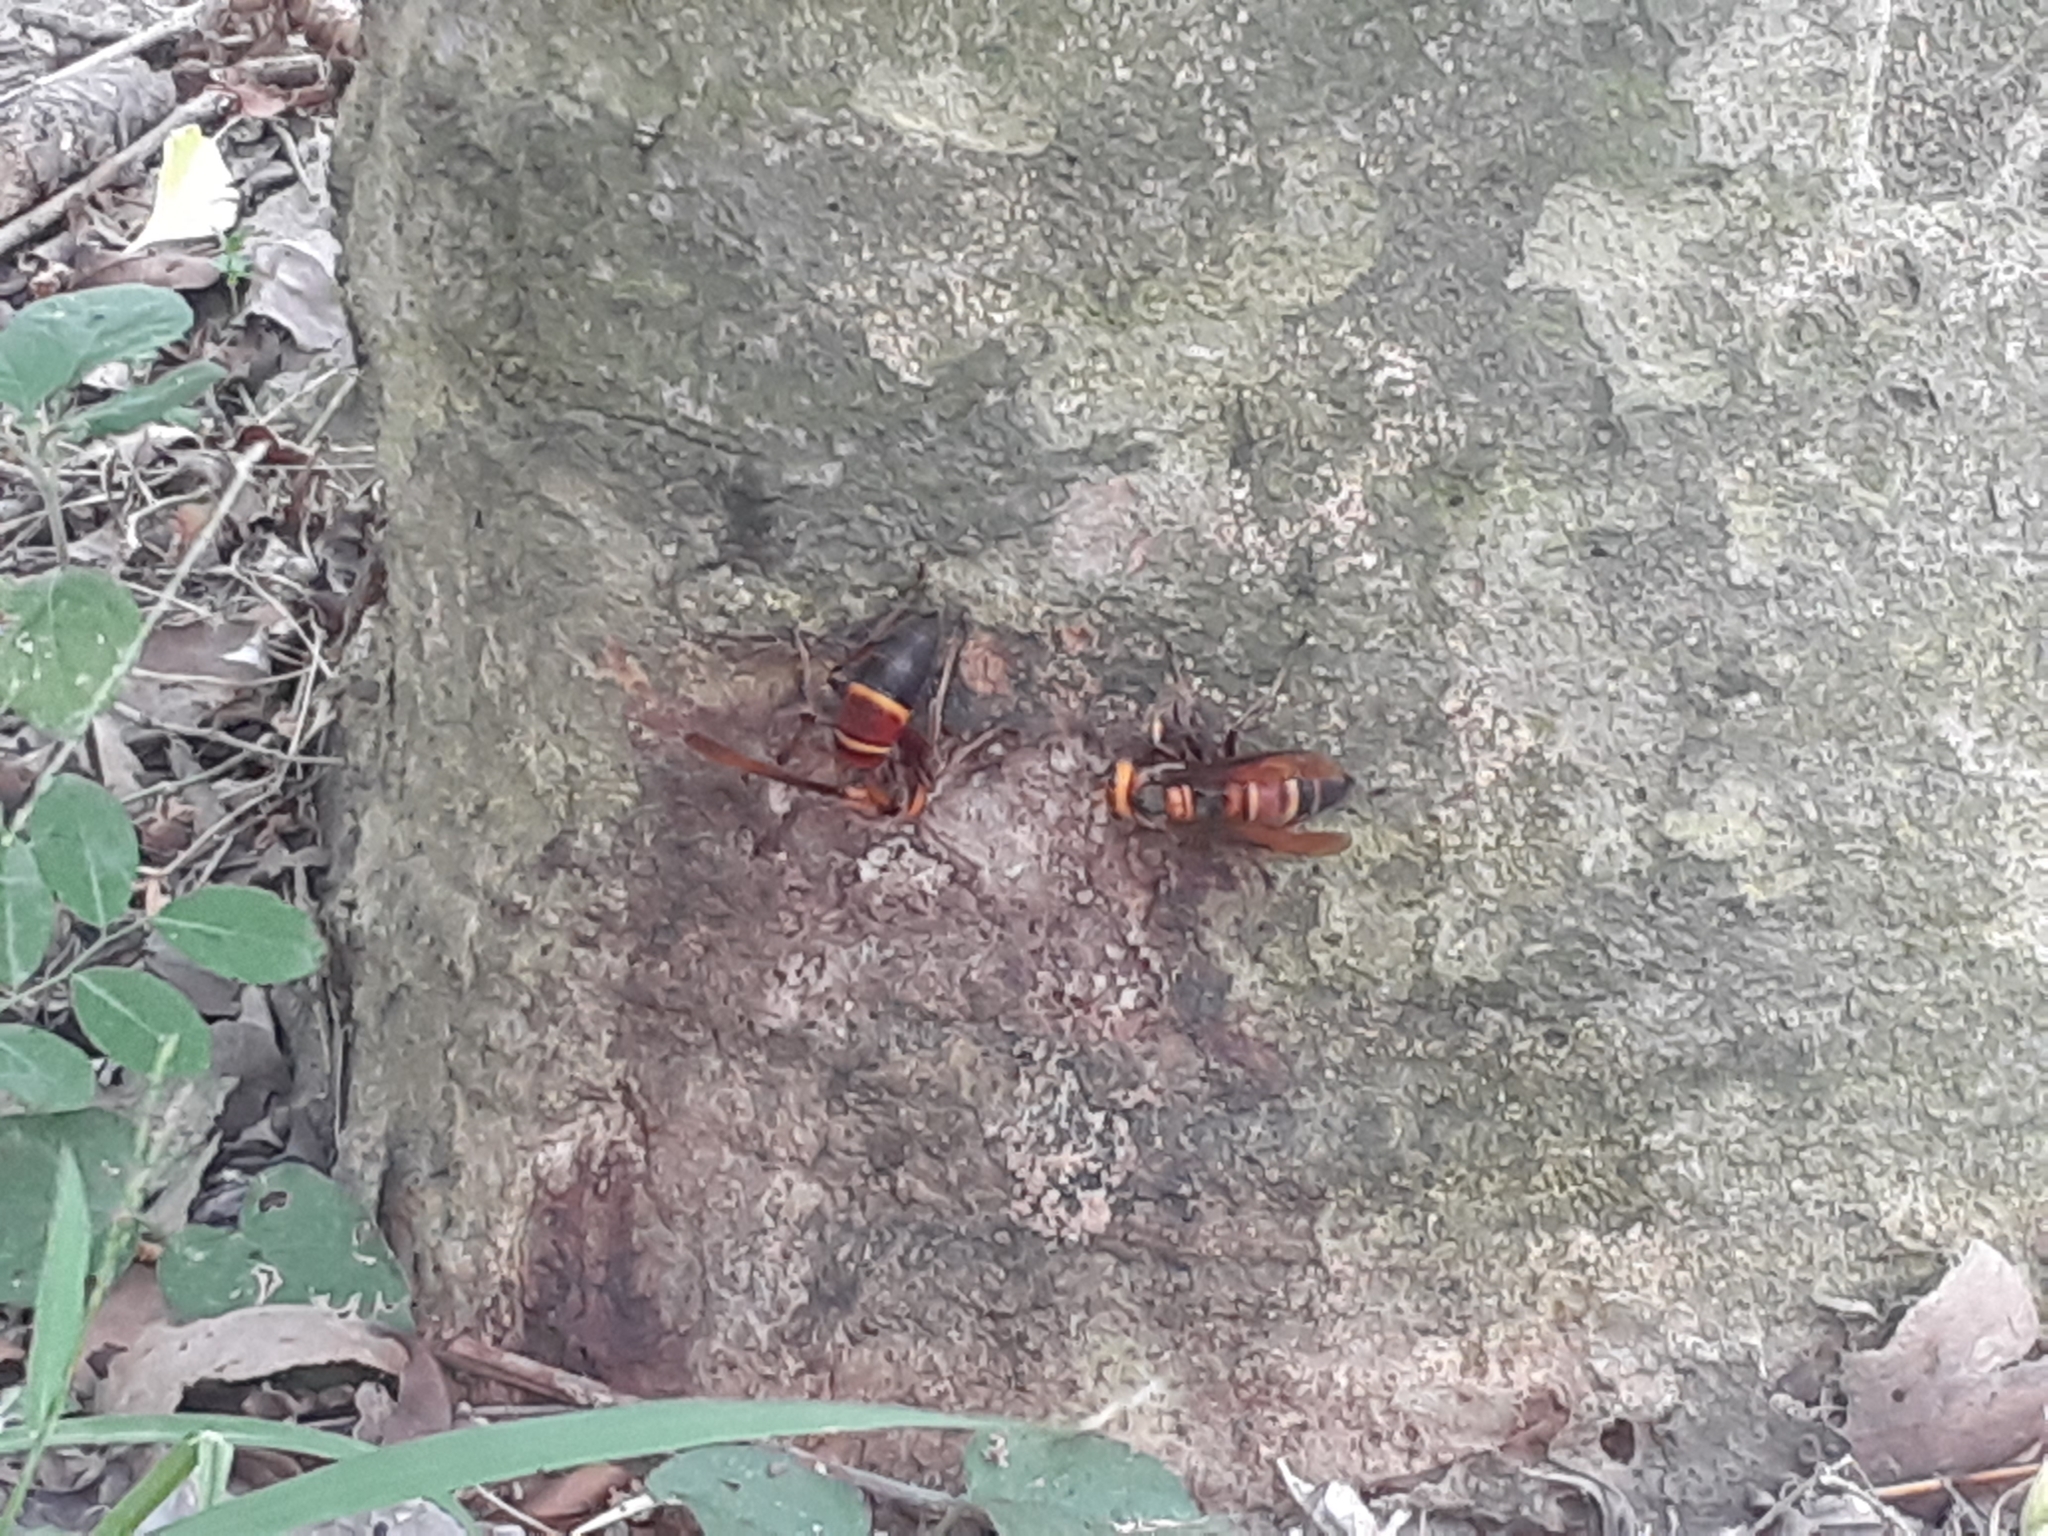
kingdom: Animalia
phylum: Arthropoda
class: Insecta
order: Hymenoptera
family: Vespidae
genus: Vespa
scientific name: Vespa ducalis
